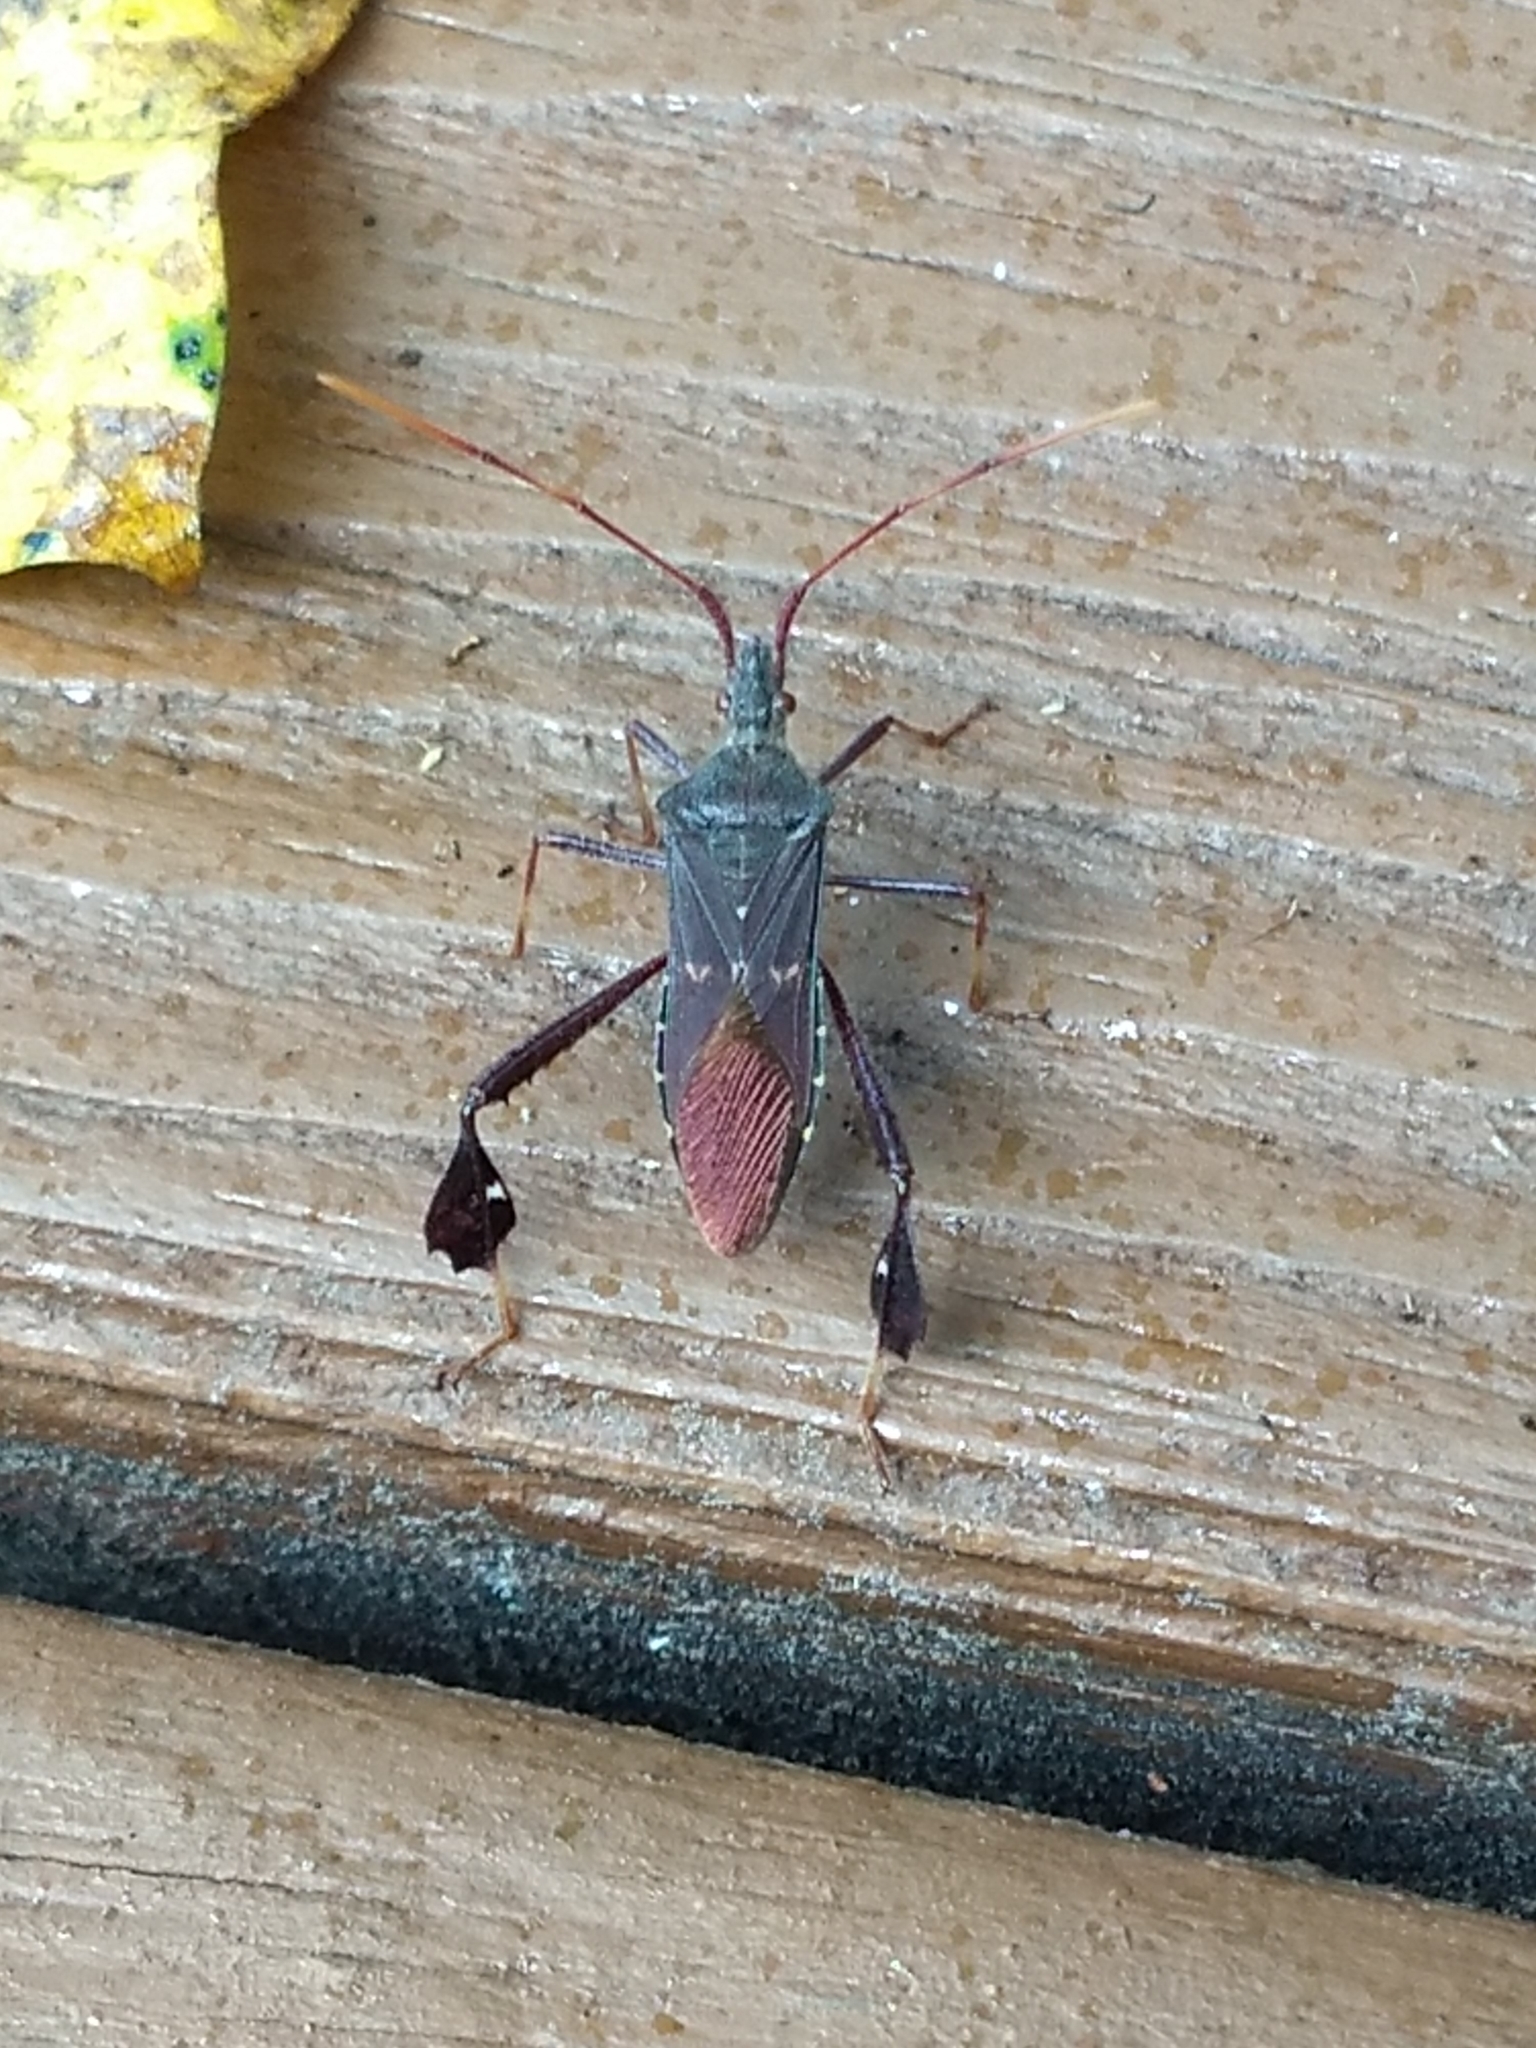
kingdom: Animalia
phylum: Arthropoda
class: Insecta
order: Hemiptera
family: Coreidae
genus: Leptoglossus
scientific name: Leptoglossus oppositus
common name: Northern leaf-footed bug
